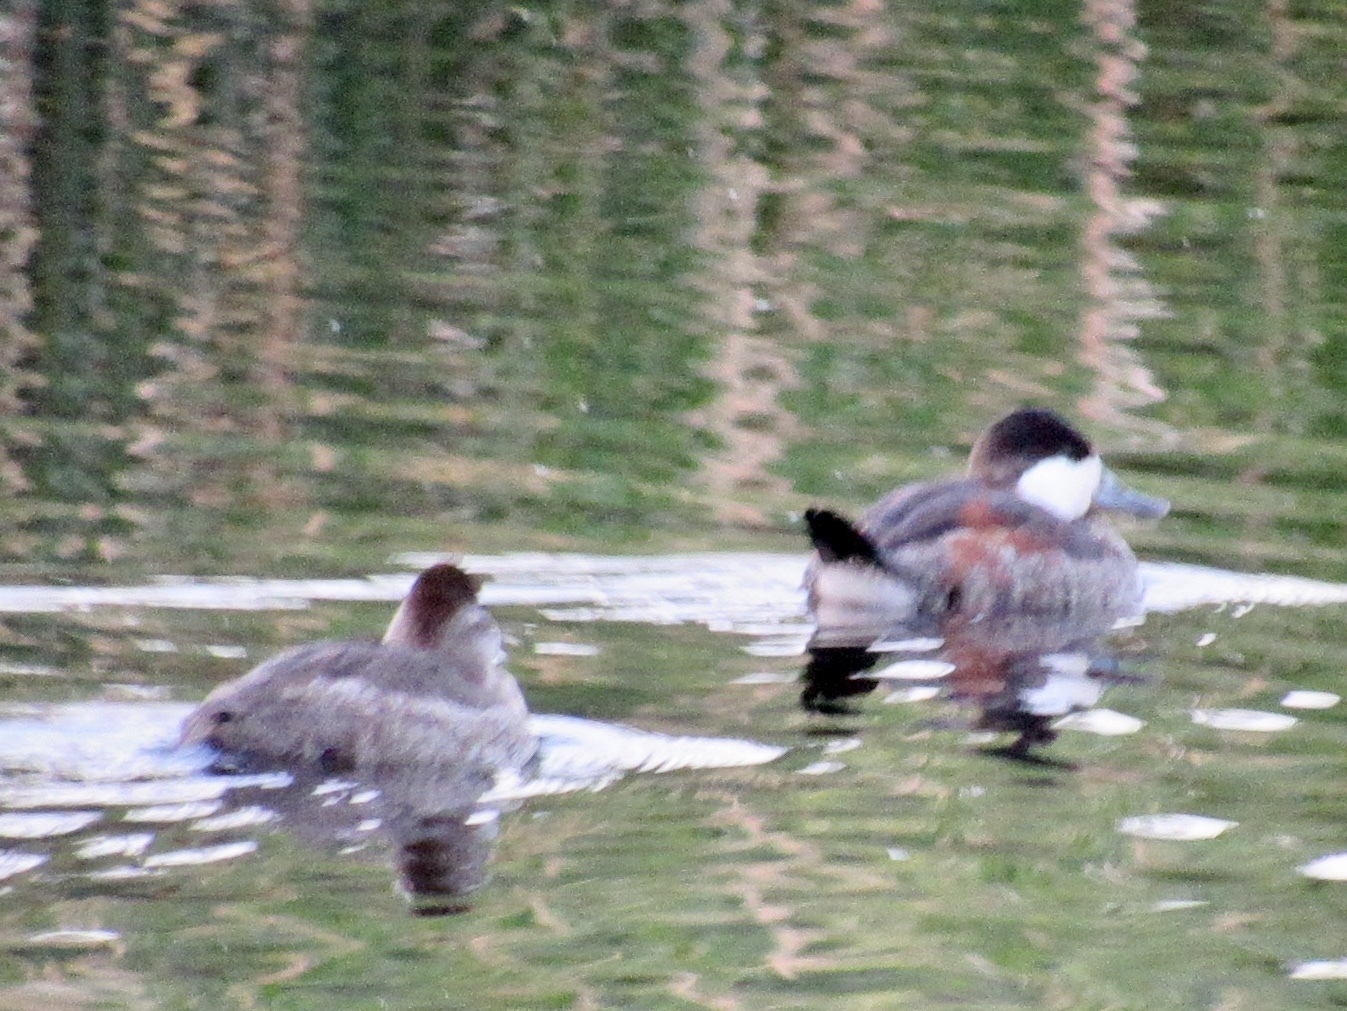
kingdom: Animalia
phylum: Chordata
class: Aves
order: Anseriformes
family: Anatidae
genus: Oxyura
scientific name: Oxyura jamaicensis
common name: Ruddy duck
